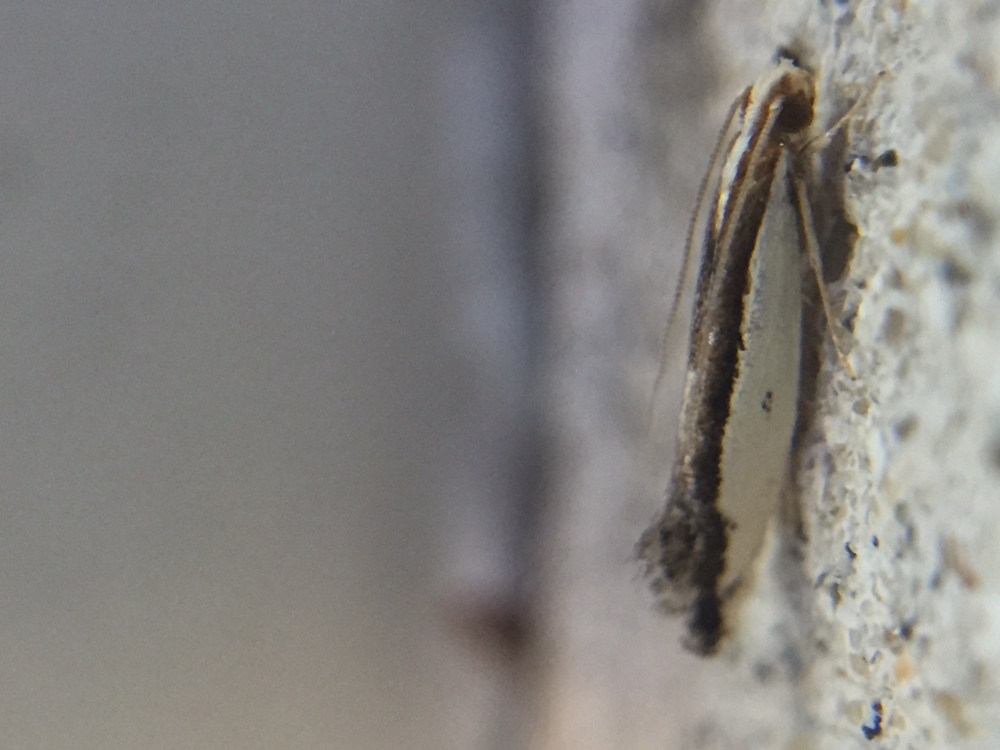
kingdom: Animalia
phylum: Arthropoda
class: Insecta
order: Lepidoptera
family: Tineidae
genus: Erechthias
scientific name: Erechthias chionodira
